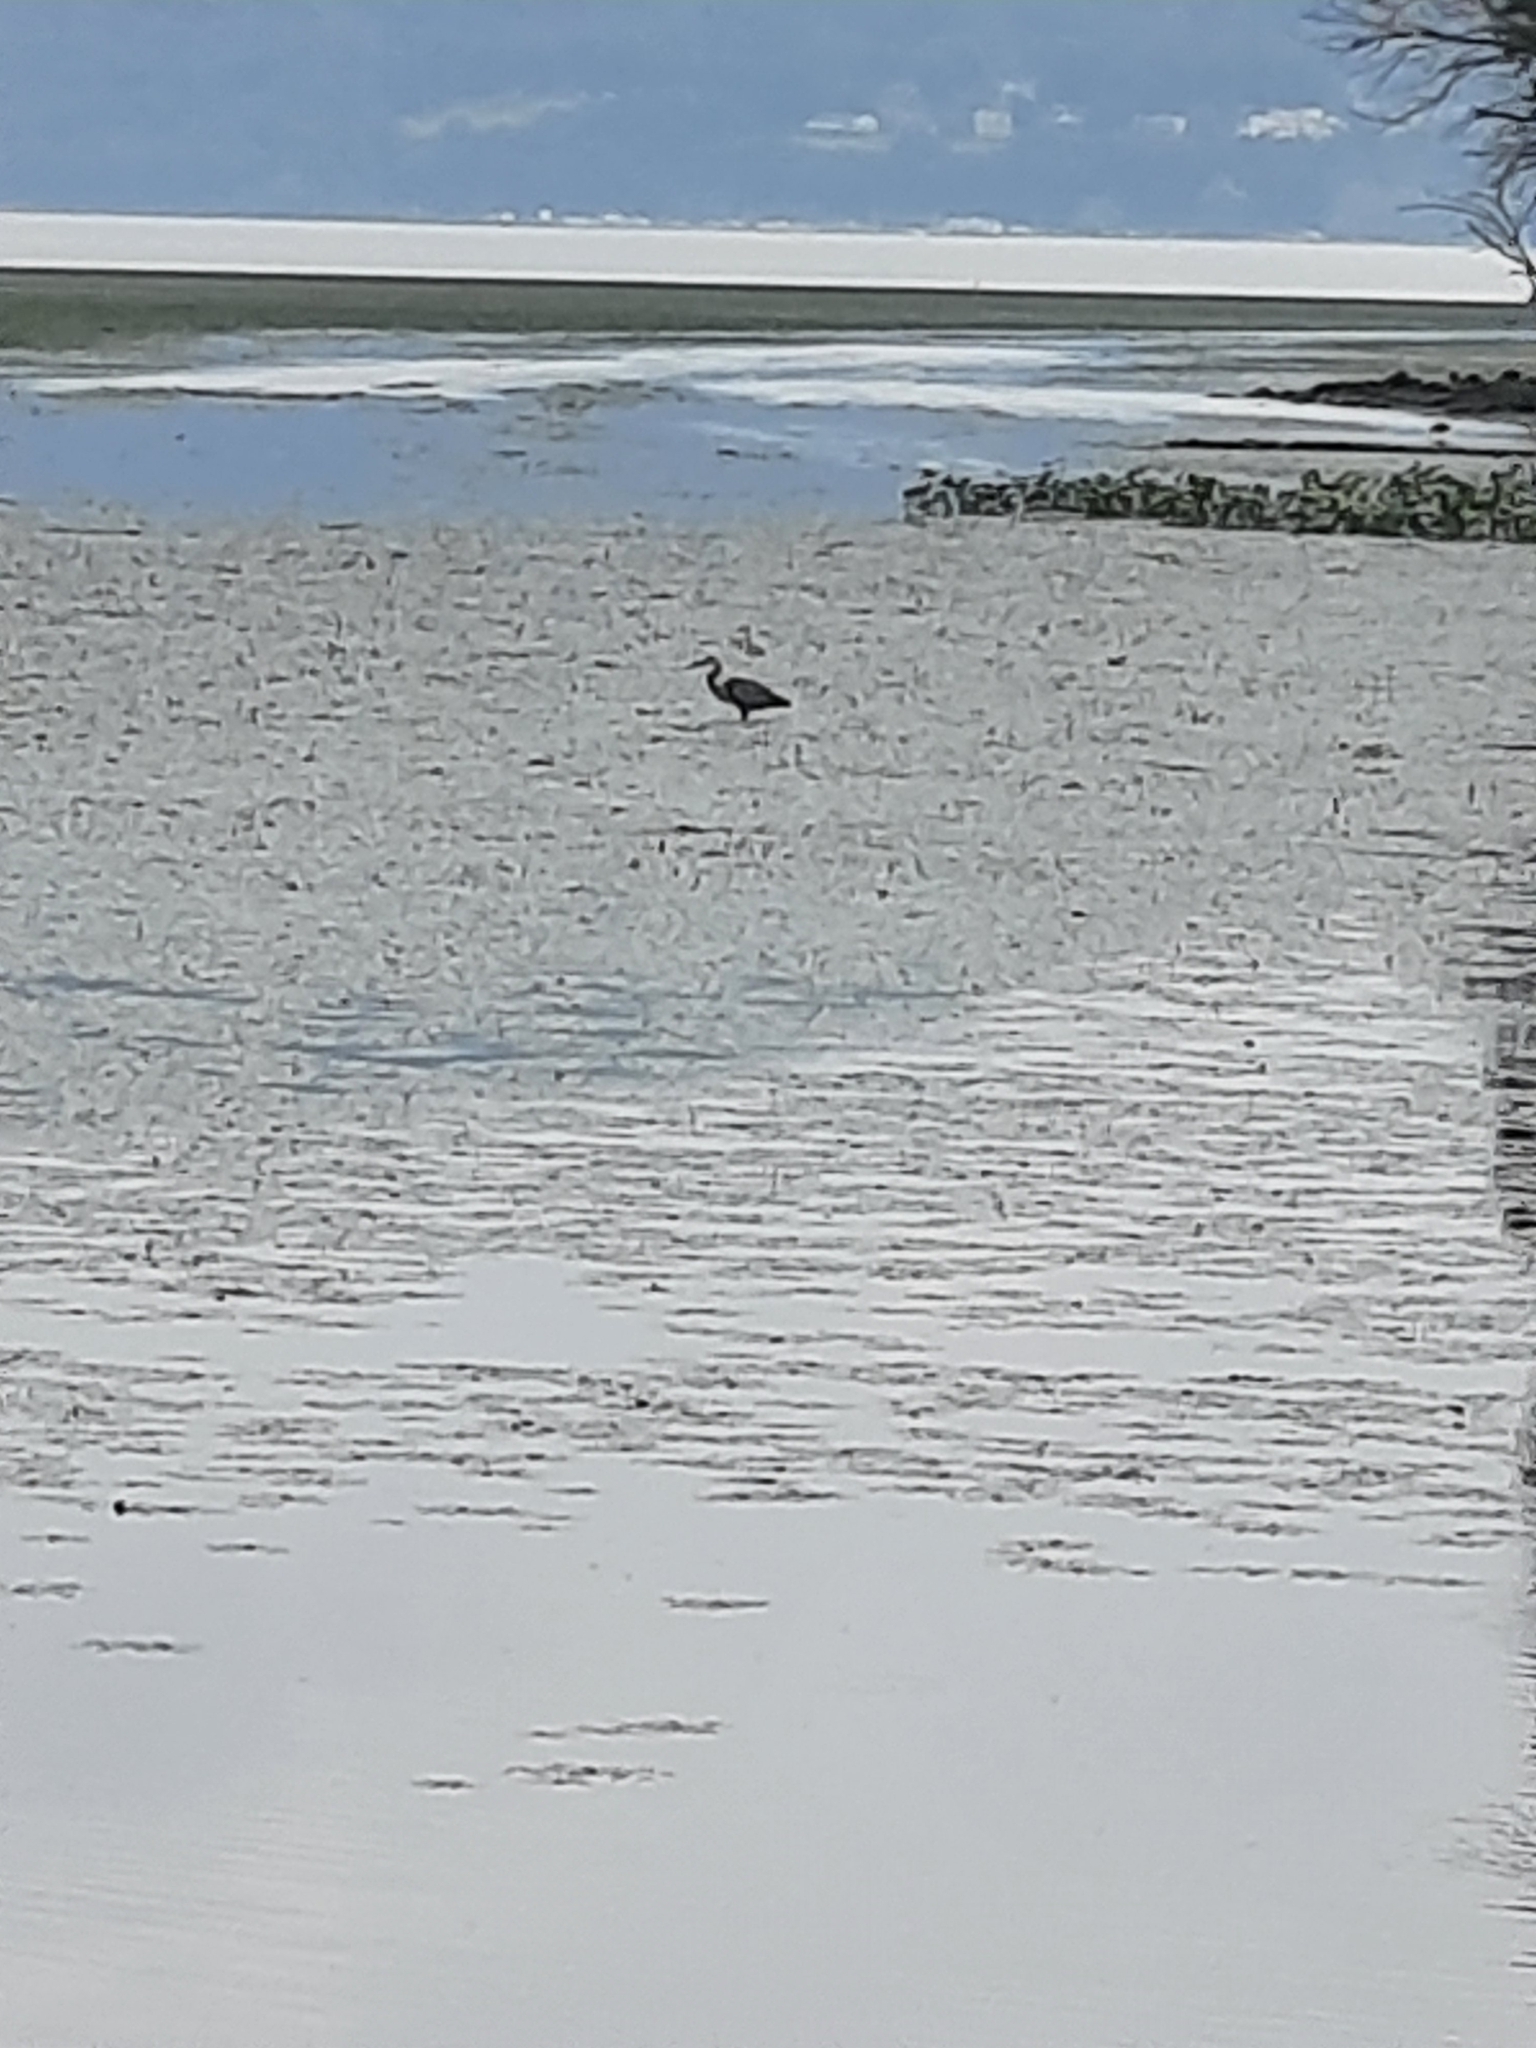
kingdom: Animalia
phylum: Chordata
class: Aves
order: Pelecaniformes
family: Ardeidae
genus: Ardea
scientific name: Ardea herodias
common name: Great blue heron
